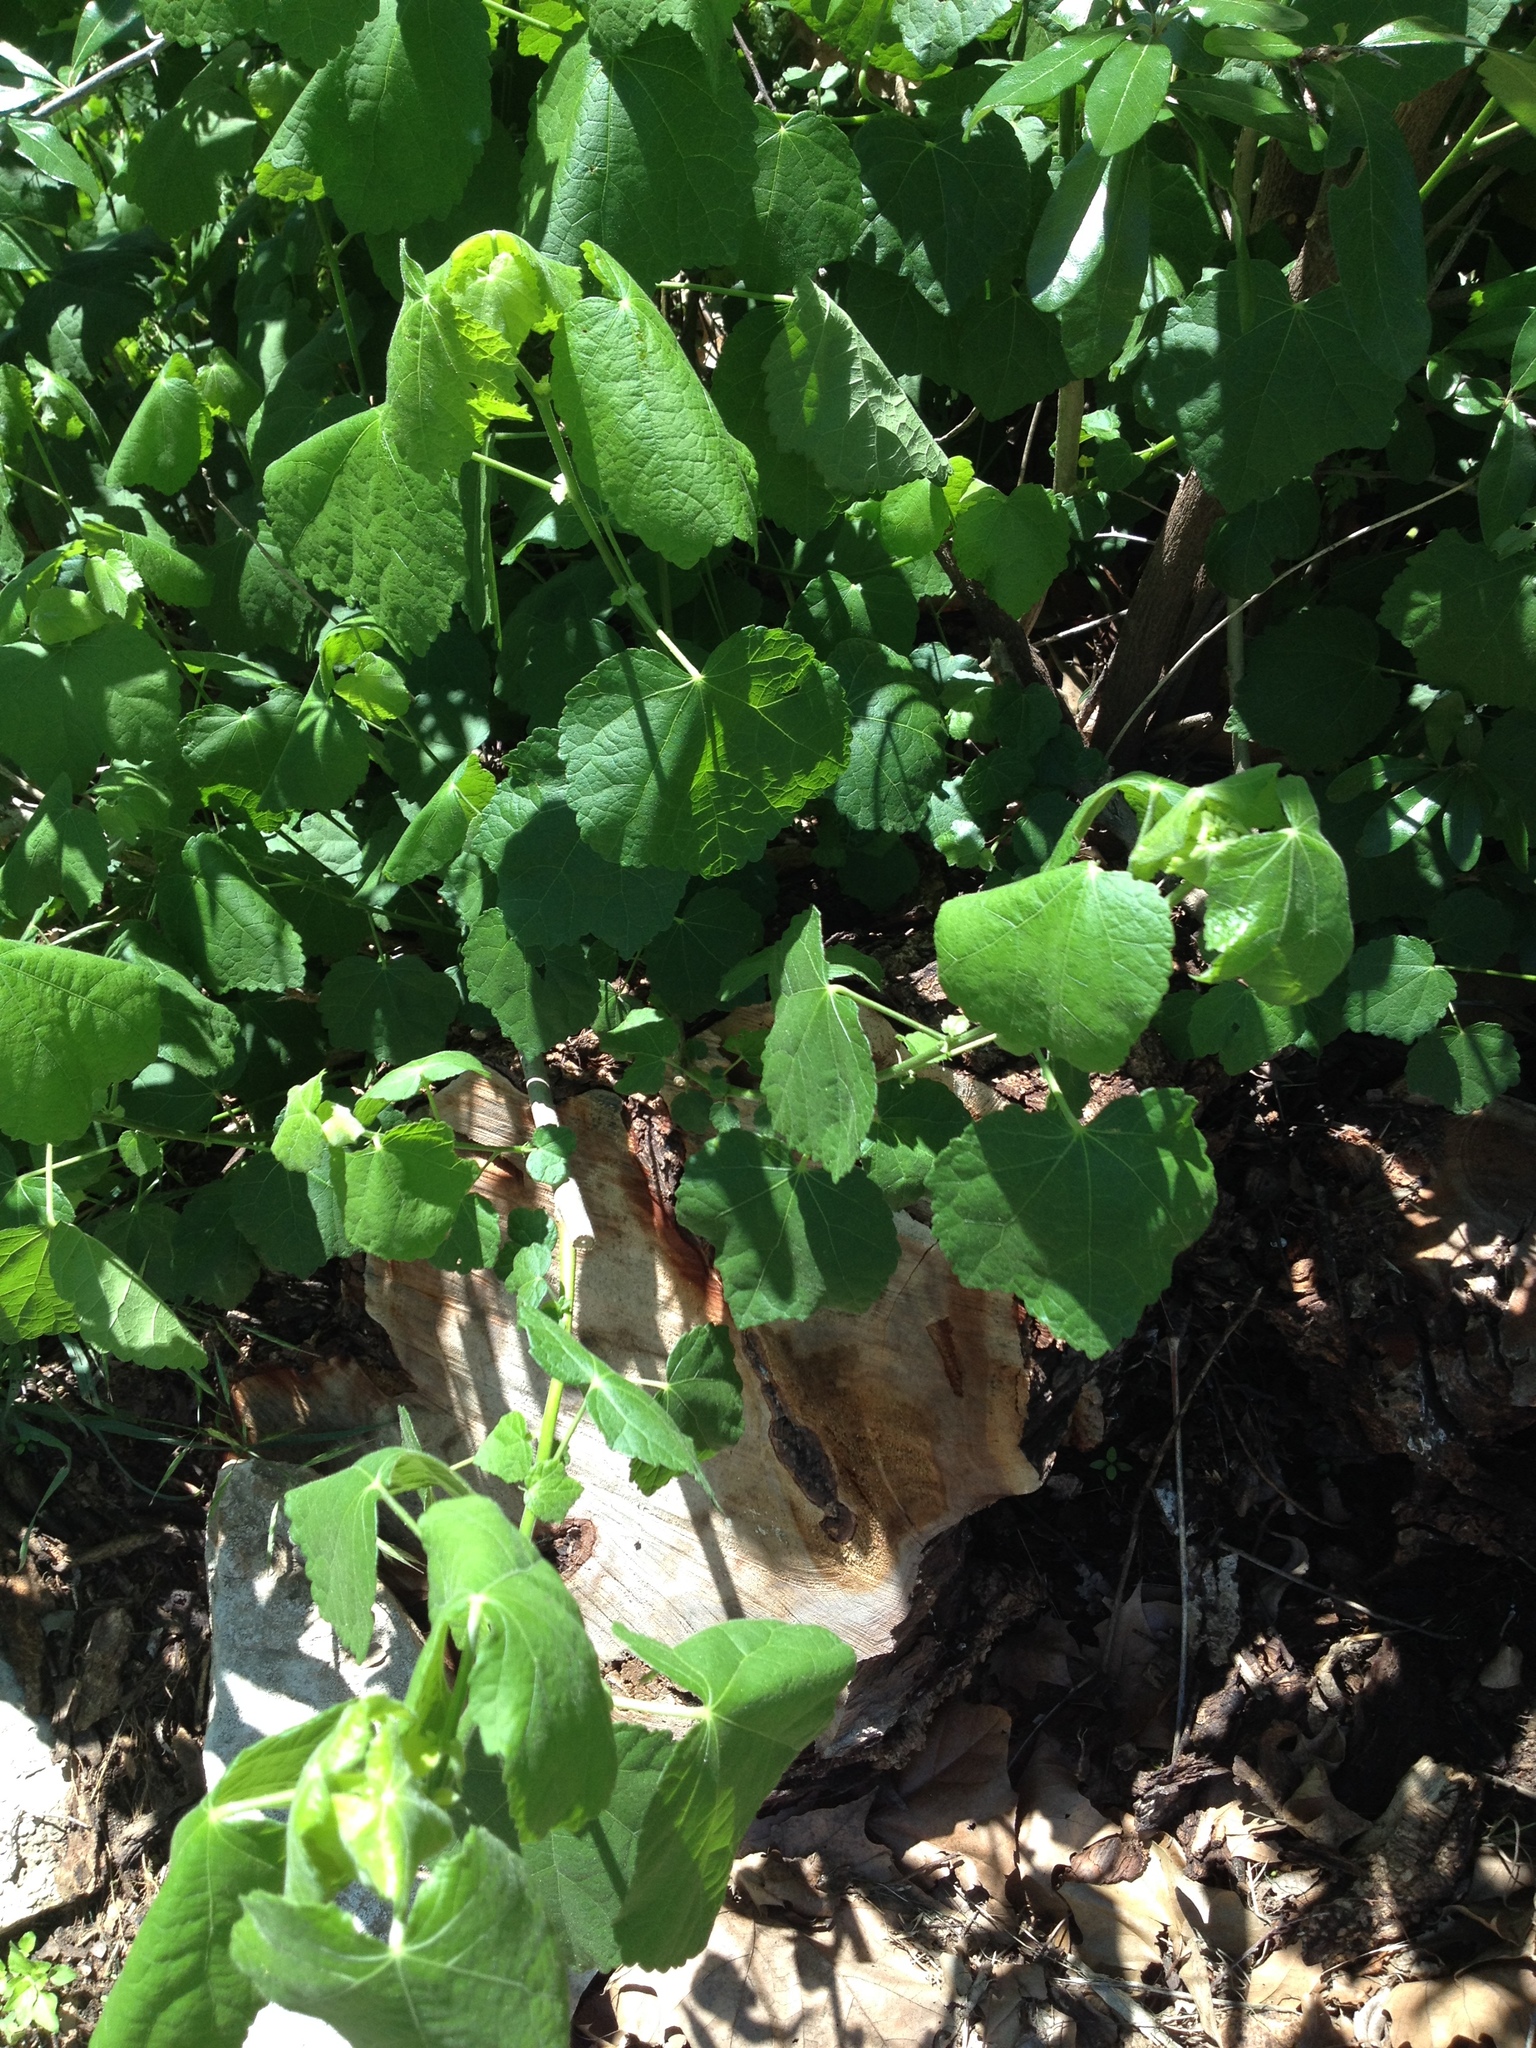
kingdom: Plantae
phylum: Tracheophyta
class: Magnoliopsida
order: Malvales
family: Malvaceae
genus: Malvaviscus
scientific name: Malvaviscus arboreus
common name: Wax mallow
